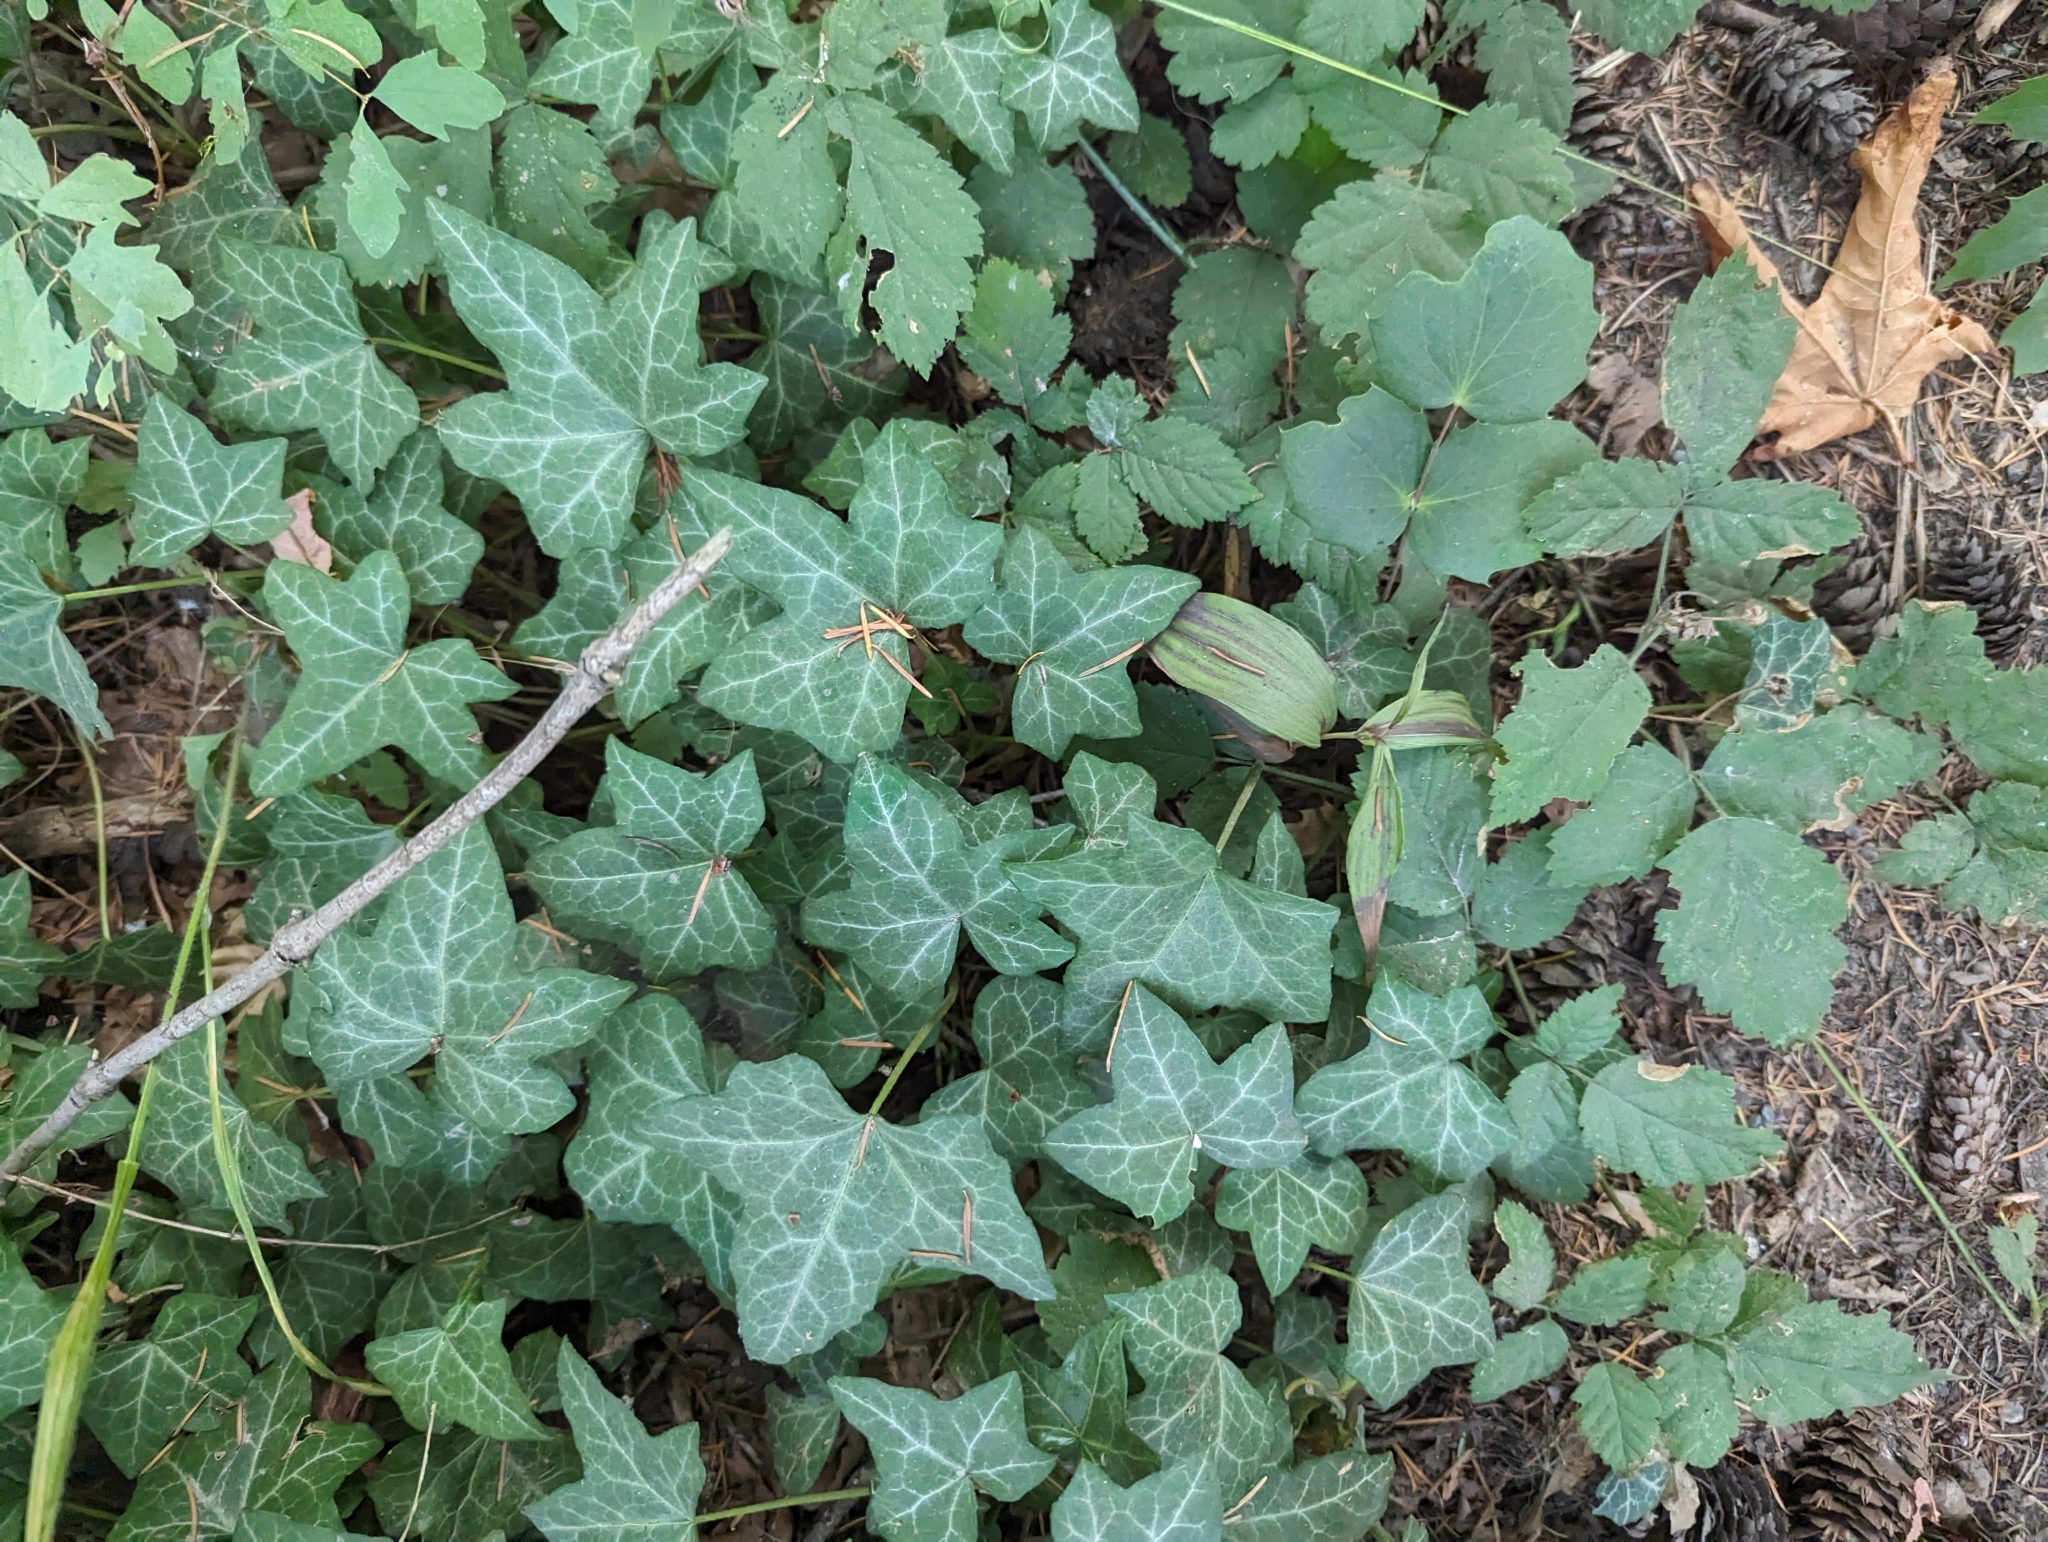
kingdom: Plantae
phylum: Tracheophyta
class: Magnoliopsida
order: Apiales
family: Araliaceae
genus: Hedera
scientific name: Hedera helix
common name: Ivy
